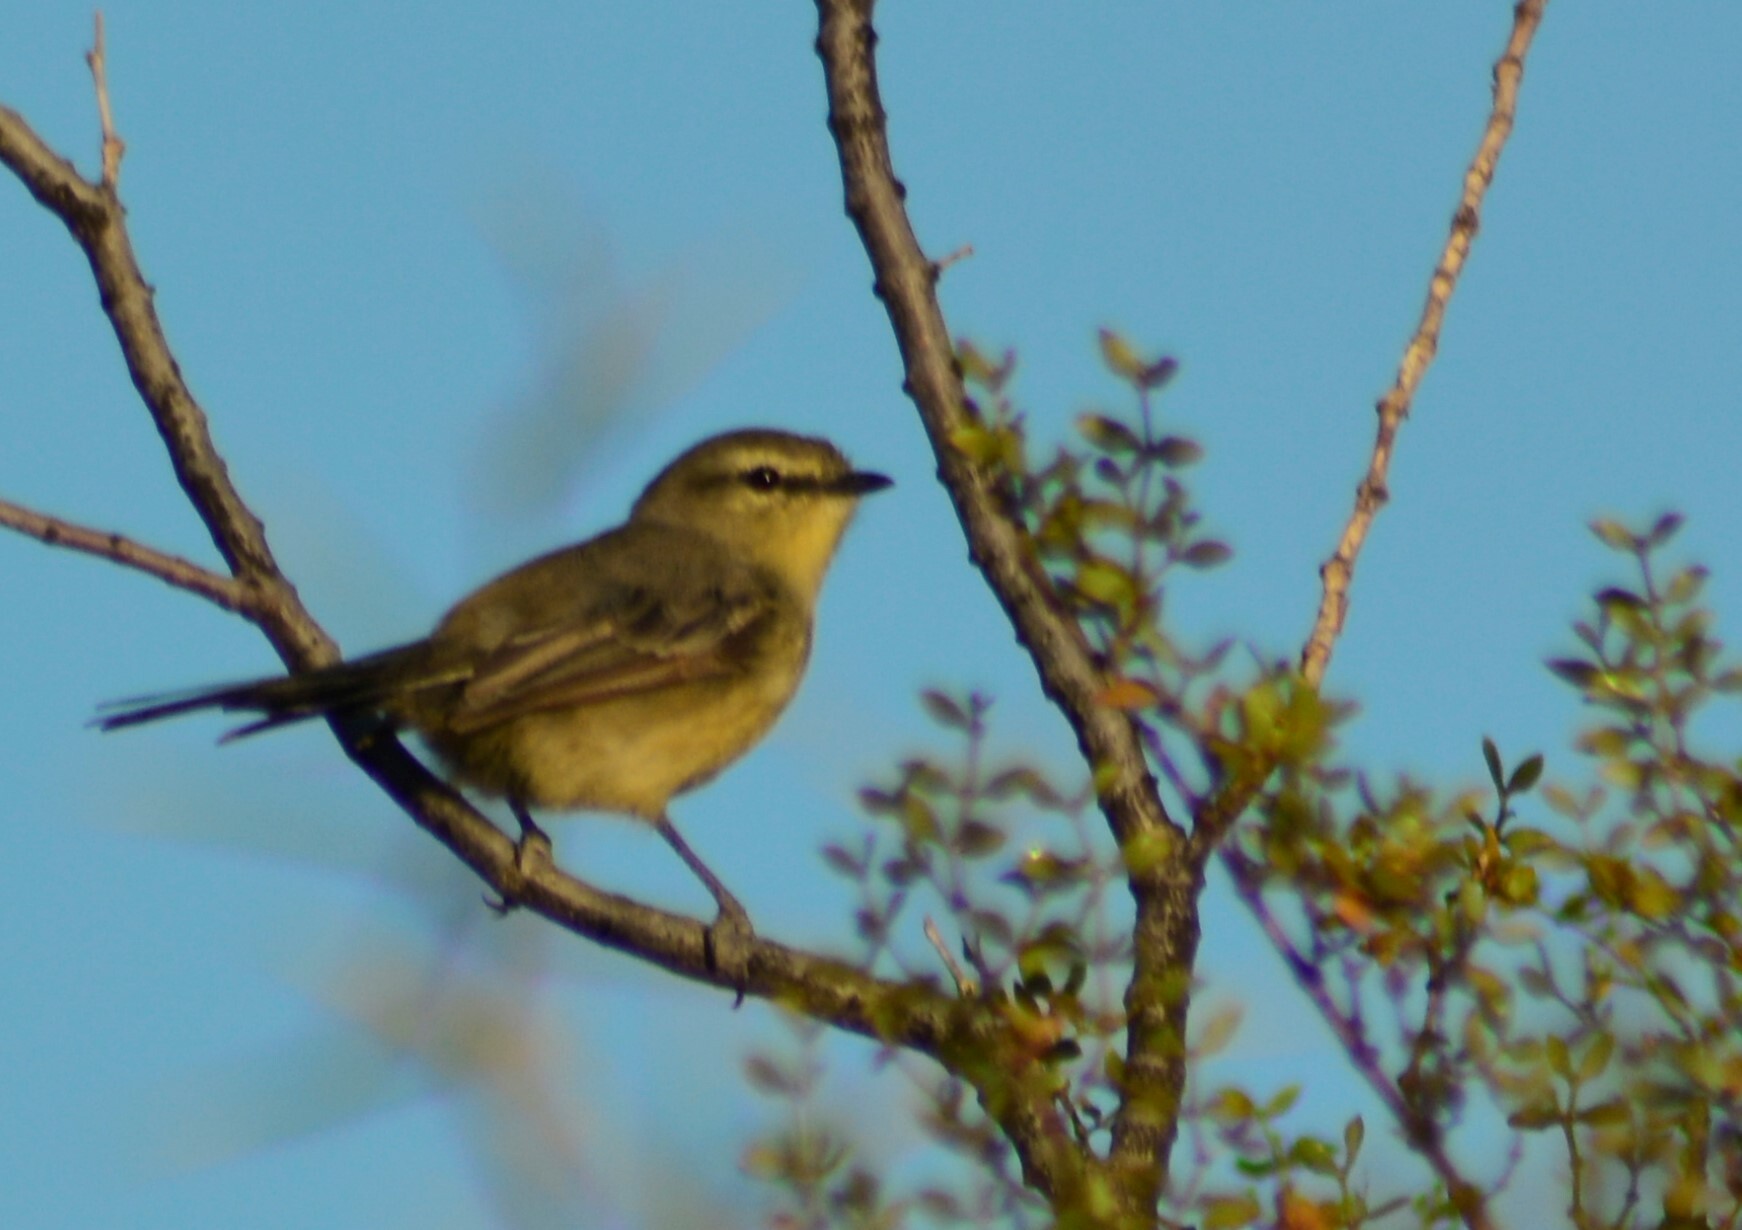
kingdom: Animalia
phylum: Chordata
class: Aves
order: Passeriformes
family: Tyrannidae
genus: Stigmatura
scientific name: Stigmatura budytoides
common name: Greater wagtail-tyrant
